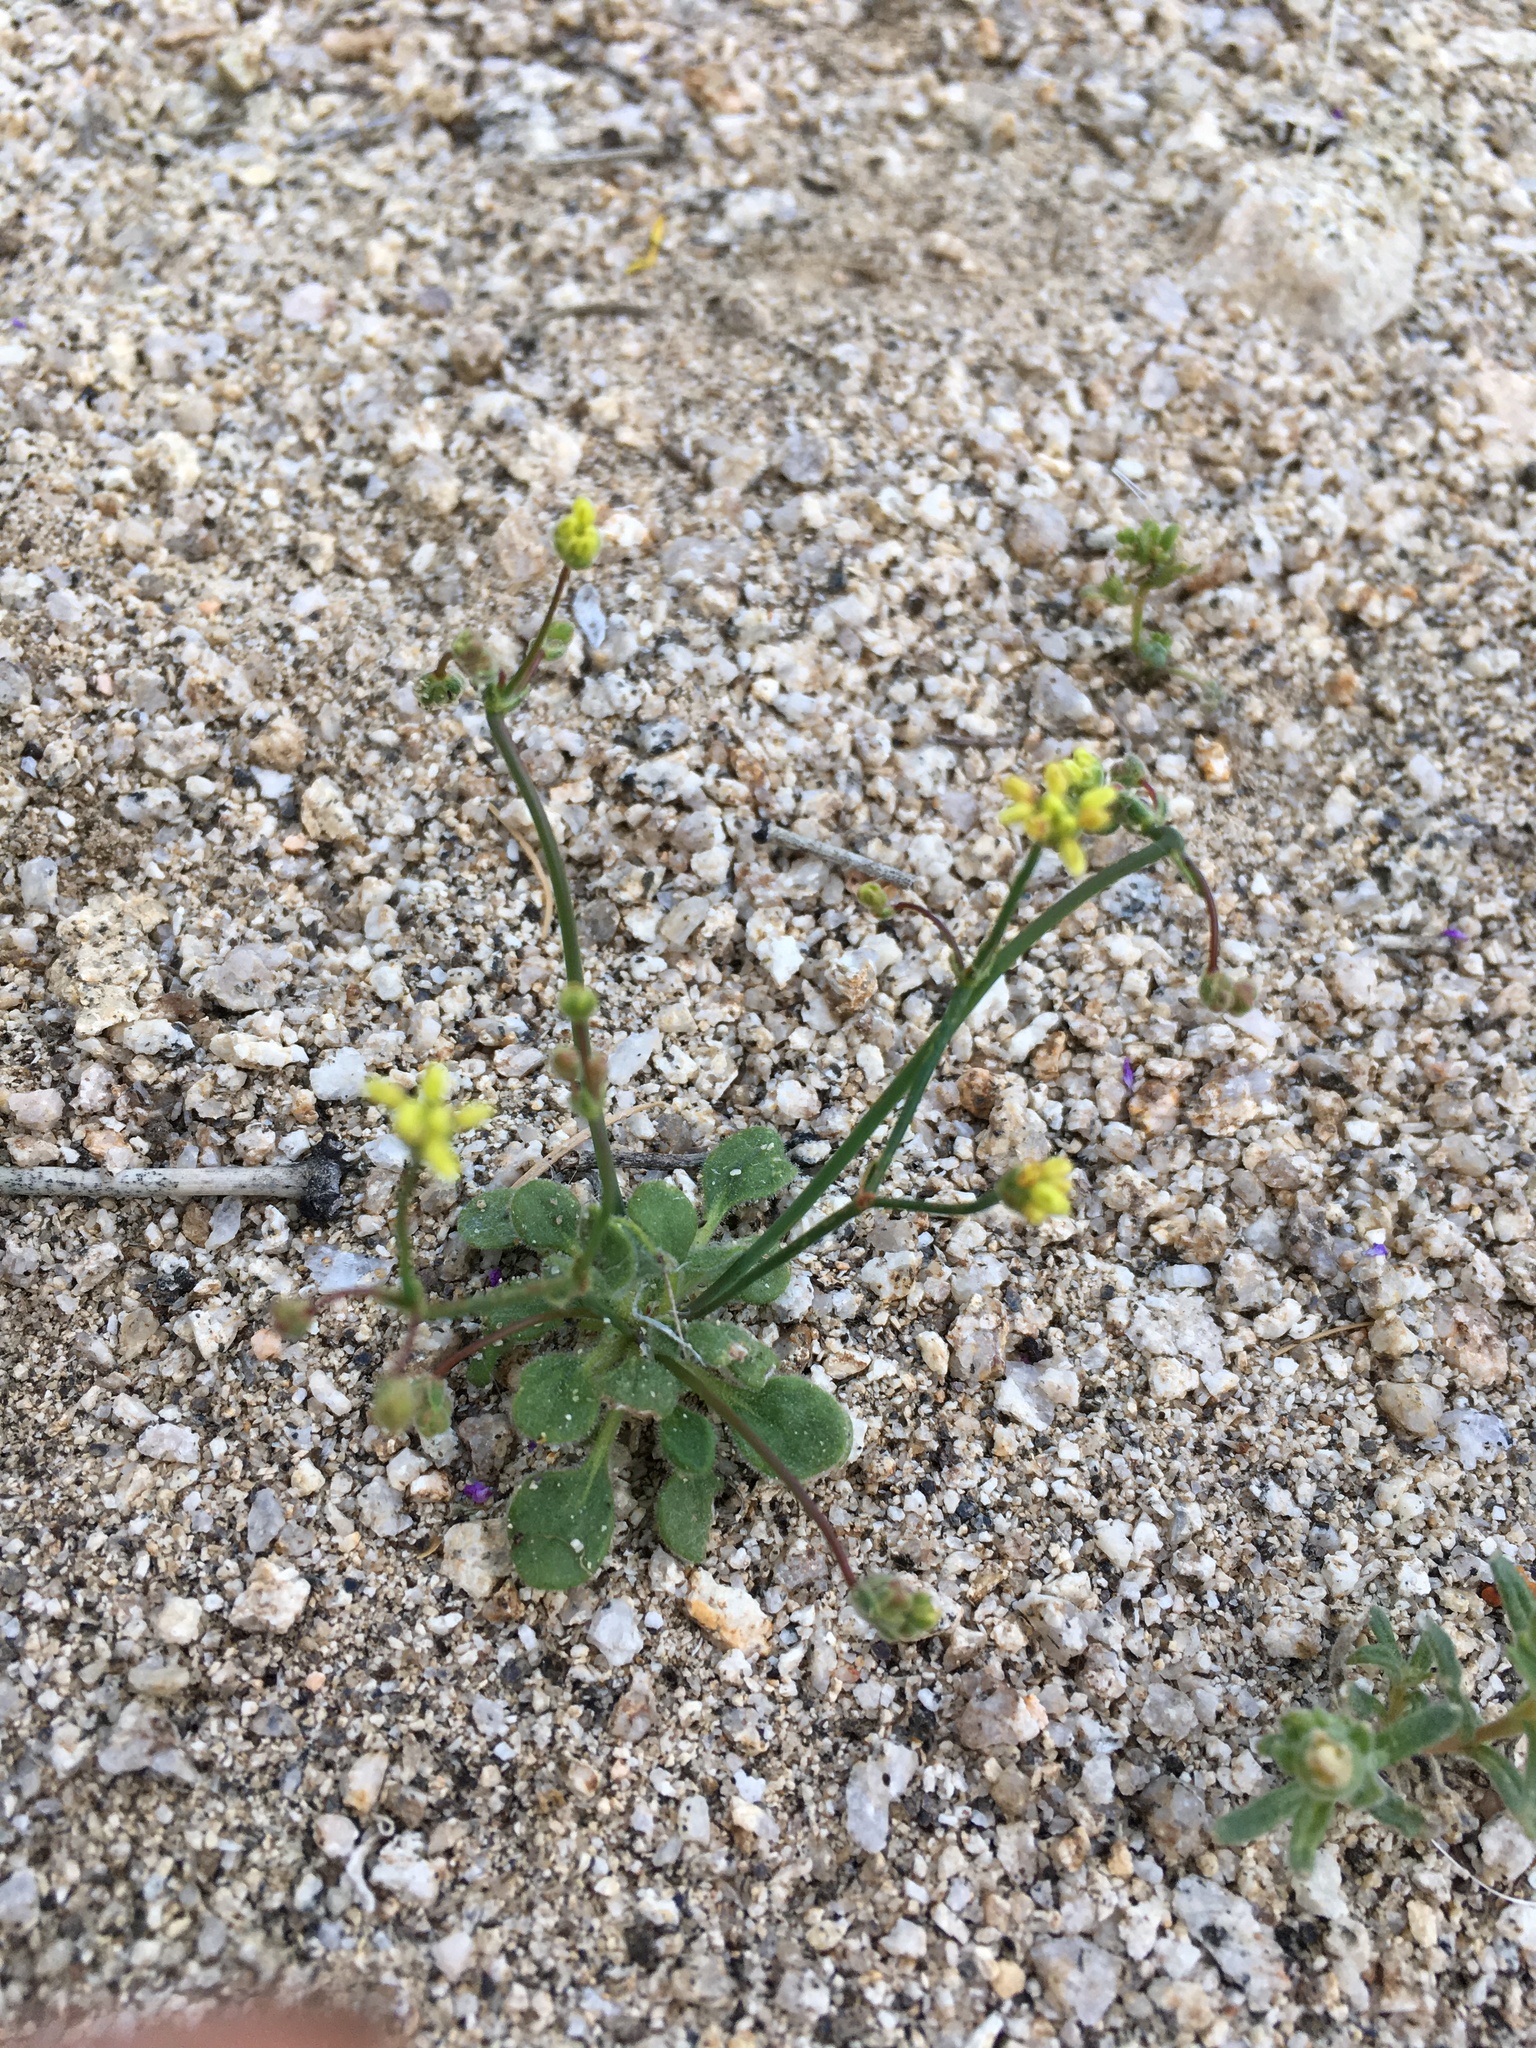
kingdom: Plantae
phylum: Tracheophyta
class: Magnoliopsida
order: Caryophyllales
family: Polygonaceae
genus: Eriogonum
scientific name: Eriogonum pusillum
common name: Yellow turbans
